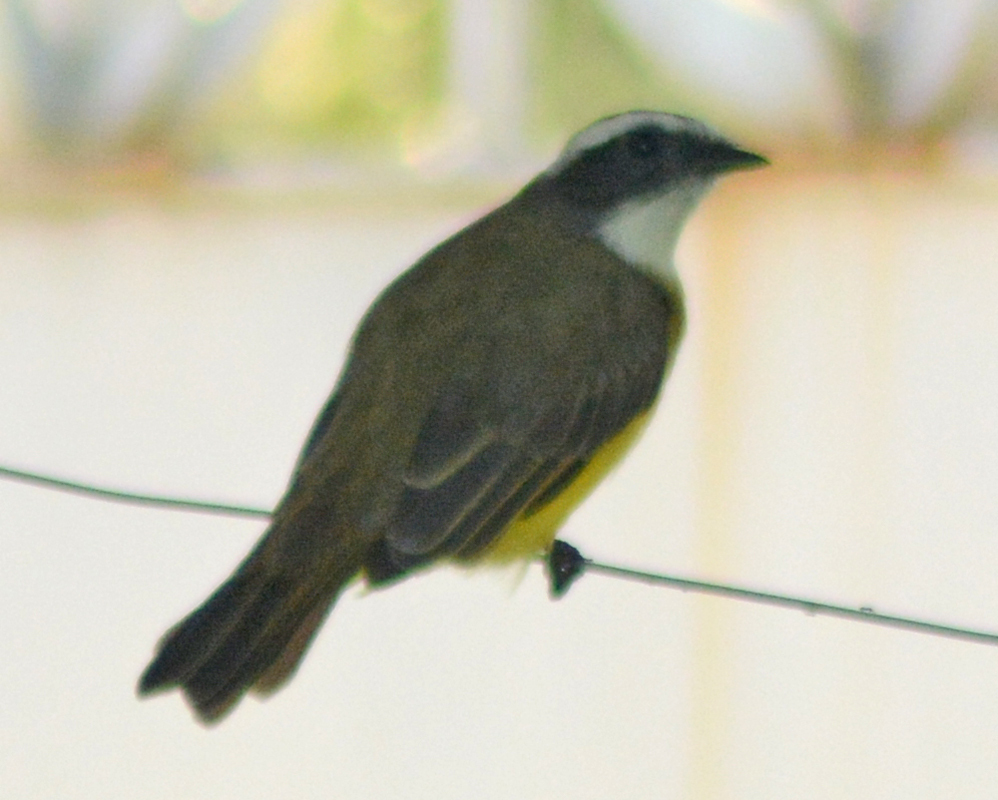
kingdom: Animalia
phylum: Chordata
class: Aves
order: Passeriformes
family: Tyrannidae
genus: Myiozetetes
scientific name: Myiozetetes similis
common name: Social flycatcher
